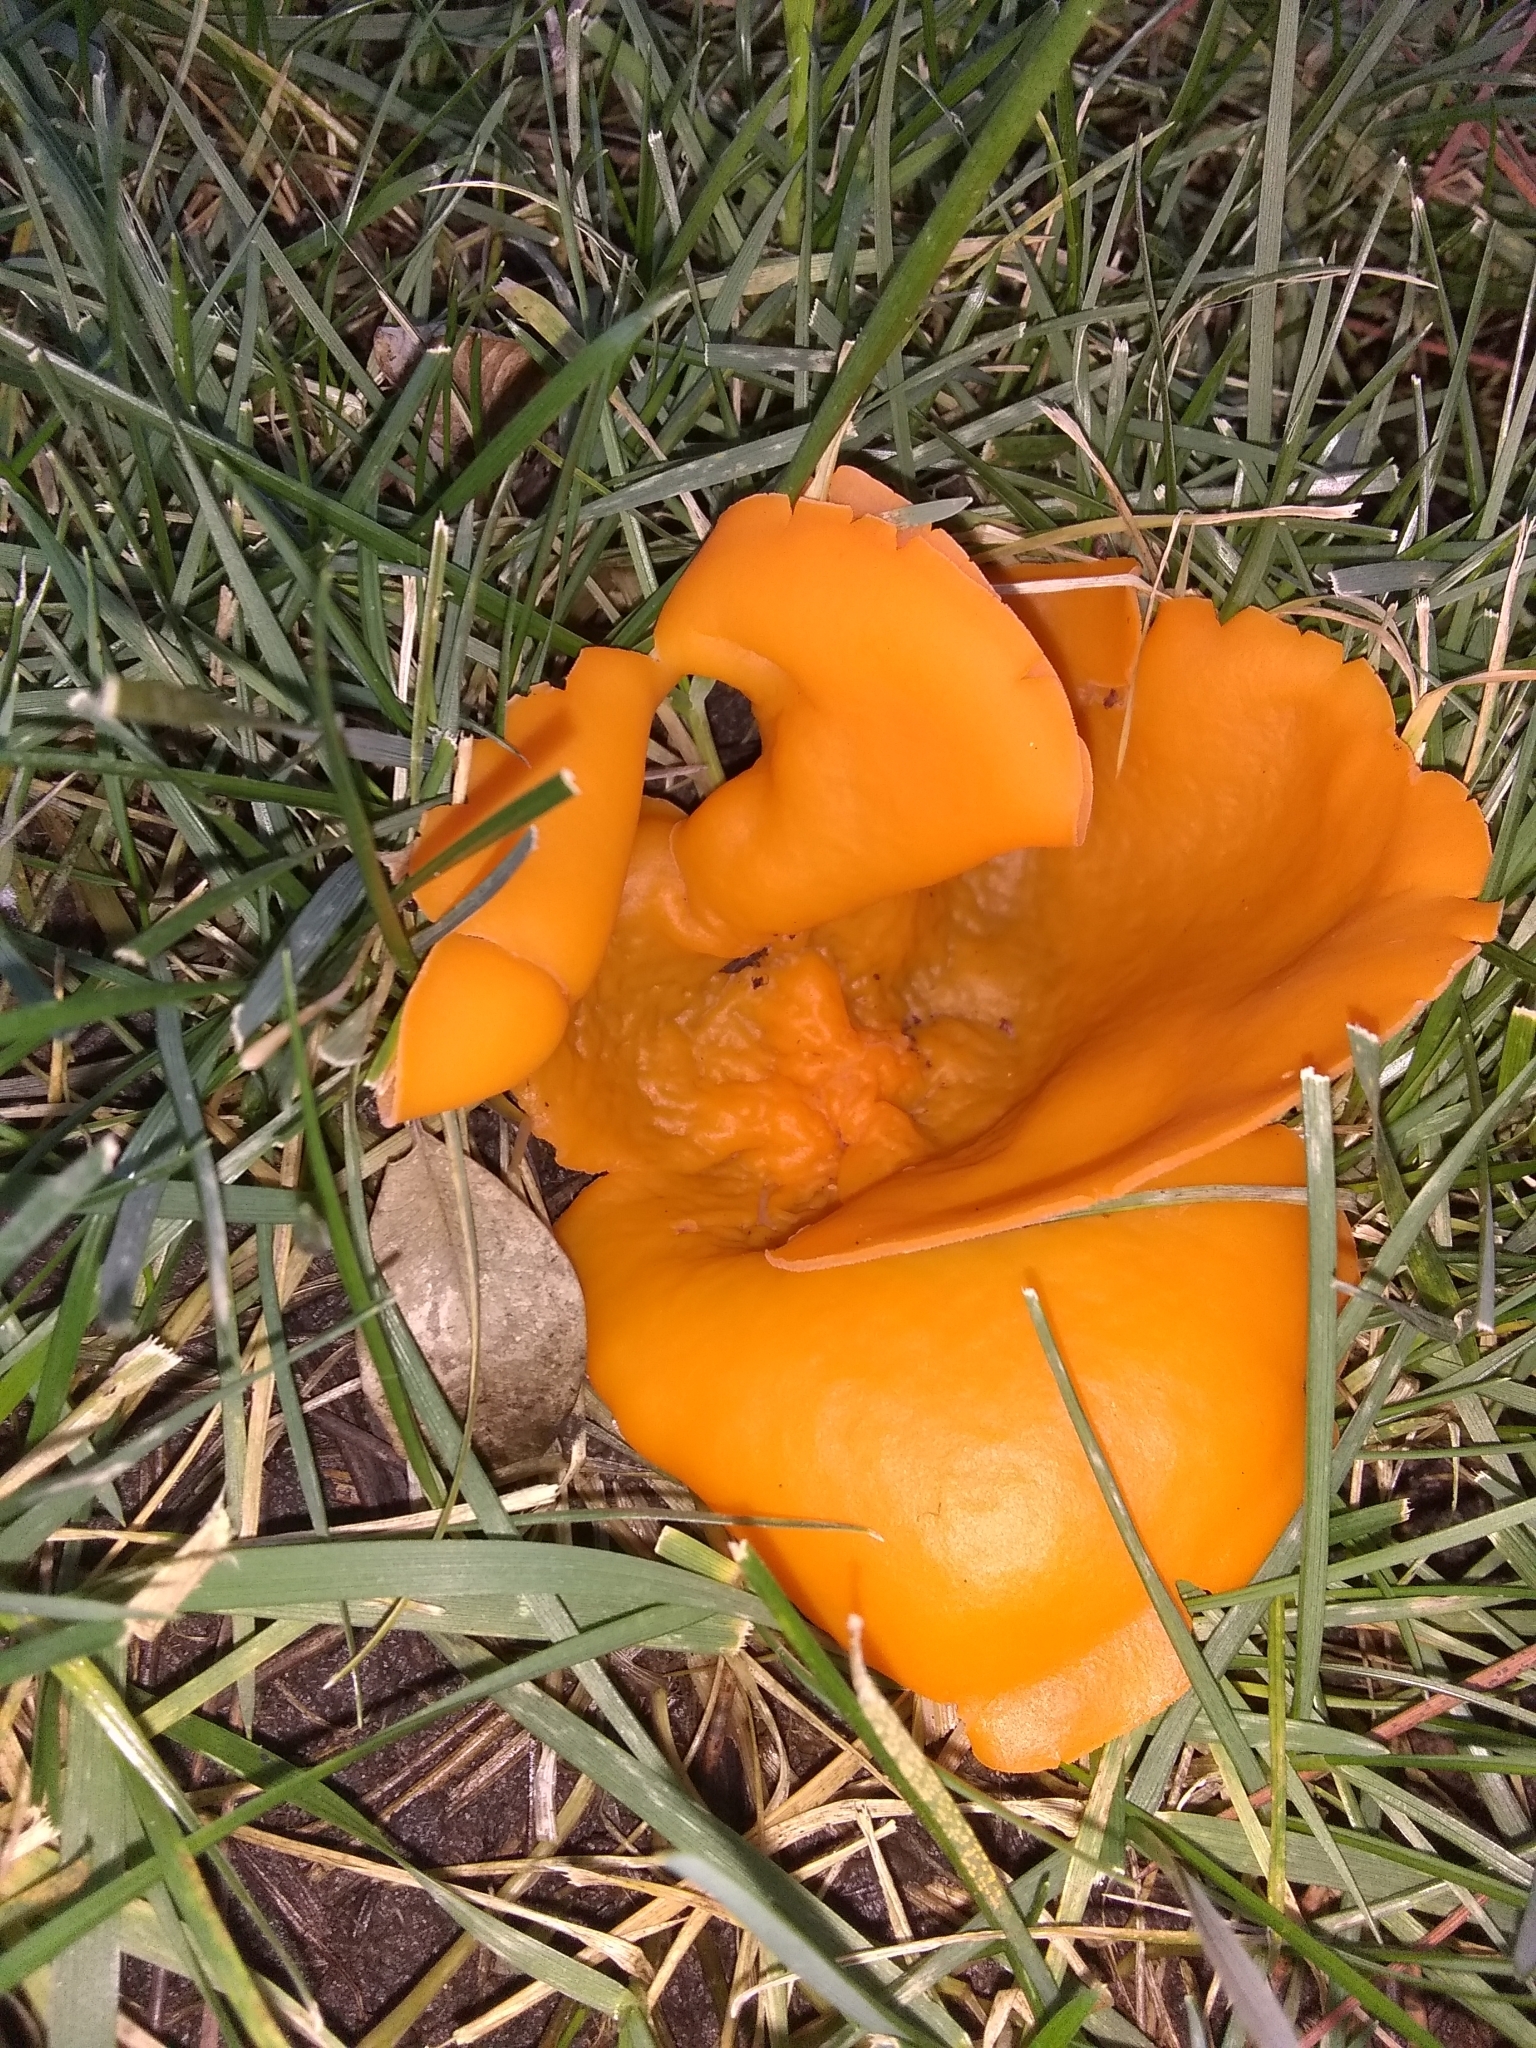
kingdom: Fungi
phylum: Ascomycota
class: Pezizomycetes
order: Pezizales
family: Pyronemataceae
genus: Aleuria
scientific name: Aleuria aurantia
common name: Orange peel fungus
